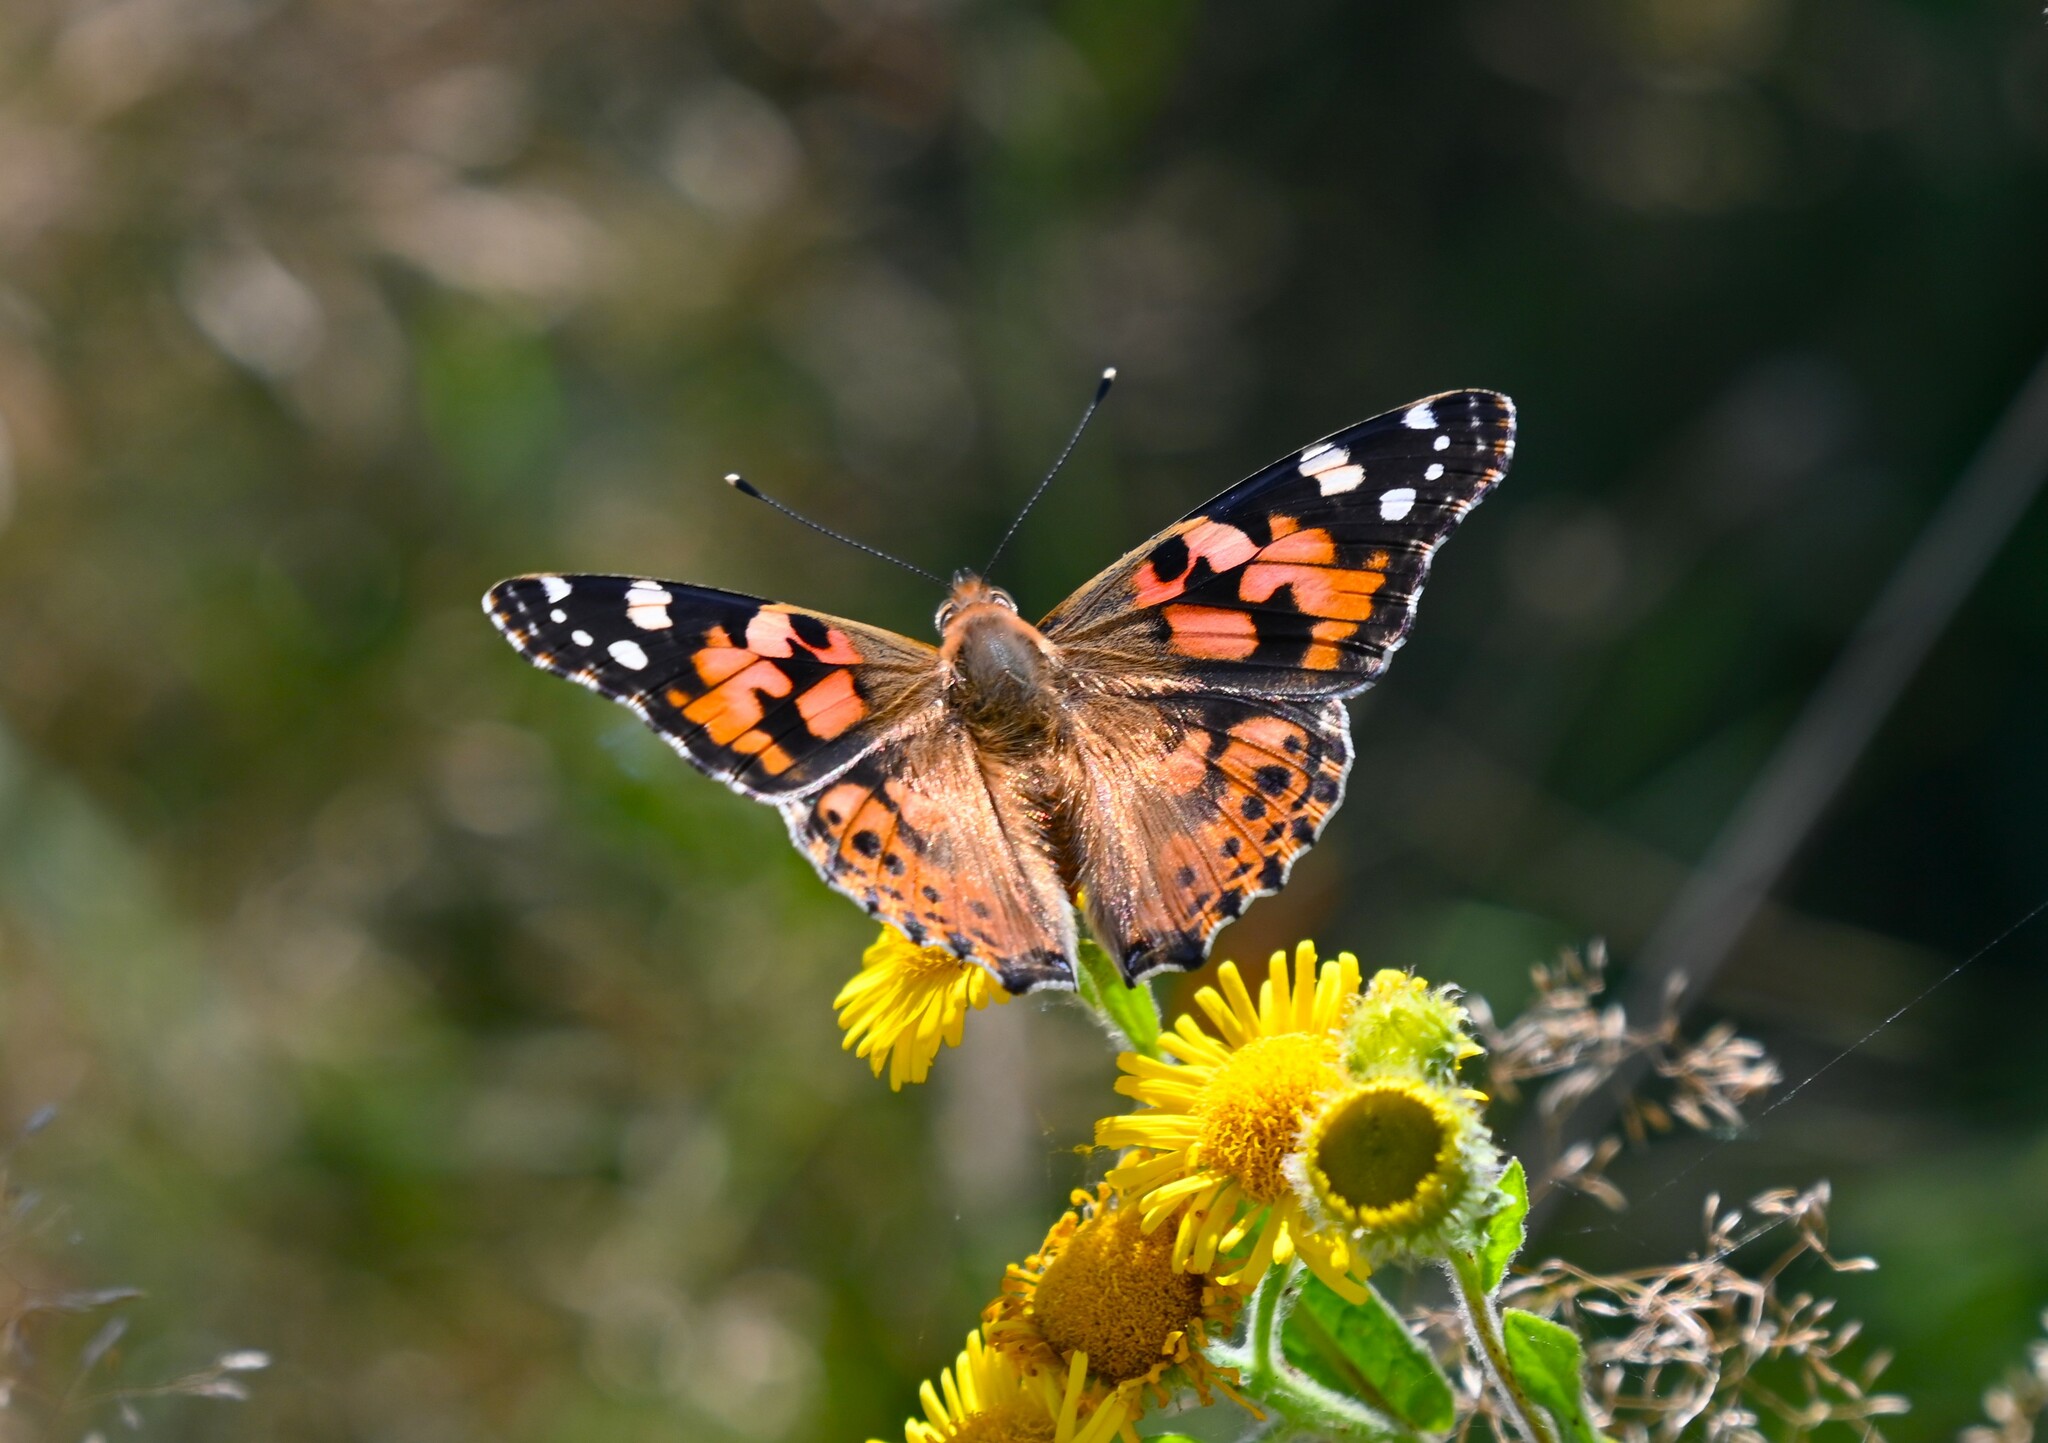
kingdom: Animalia
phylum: Arthropoda
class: Insecta
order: Lepidoptera
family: Nymphalidae
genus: Vanessa
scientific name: Vanessa cardui
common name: Painted lady
